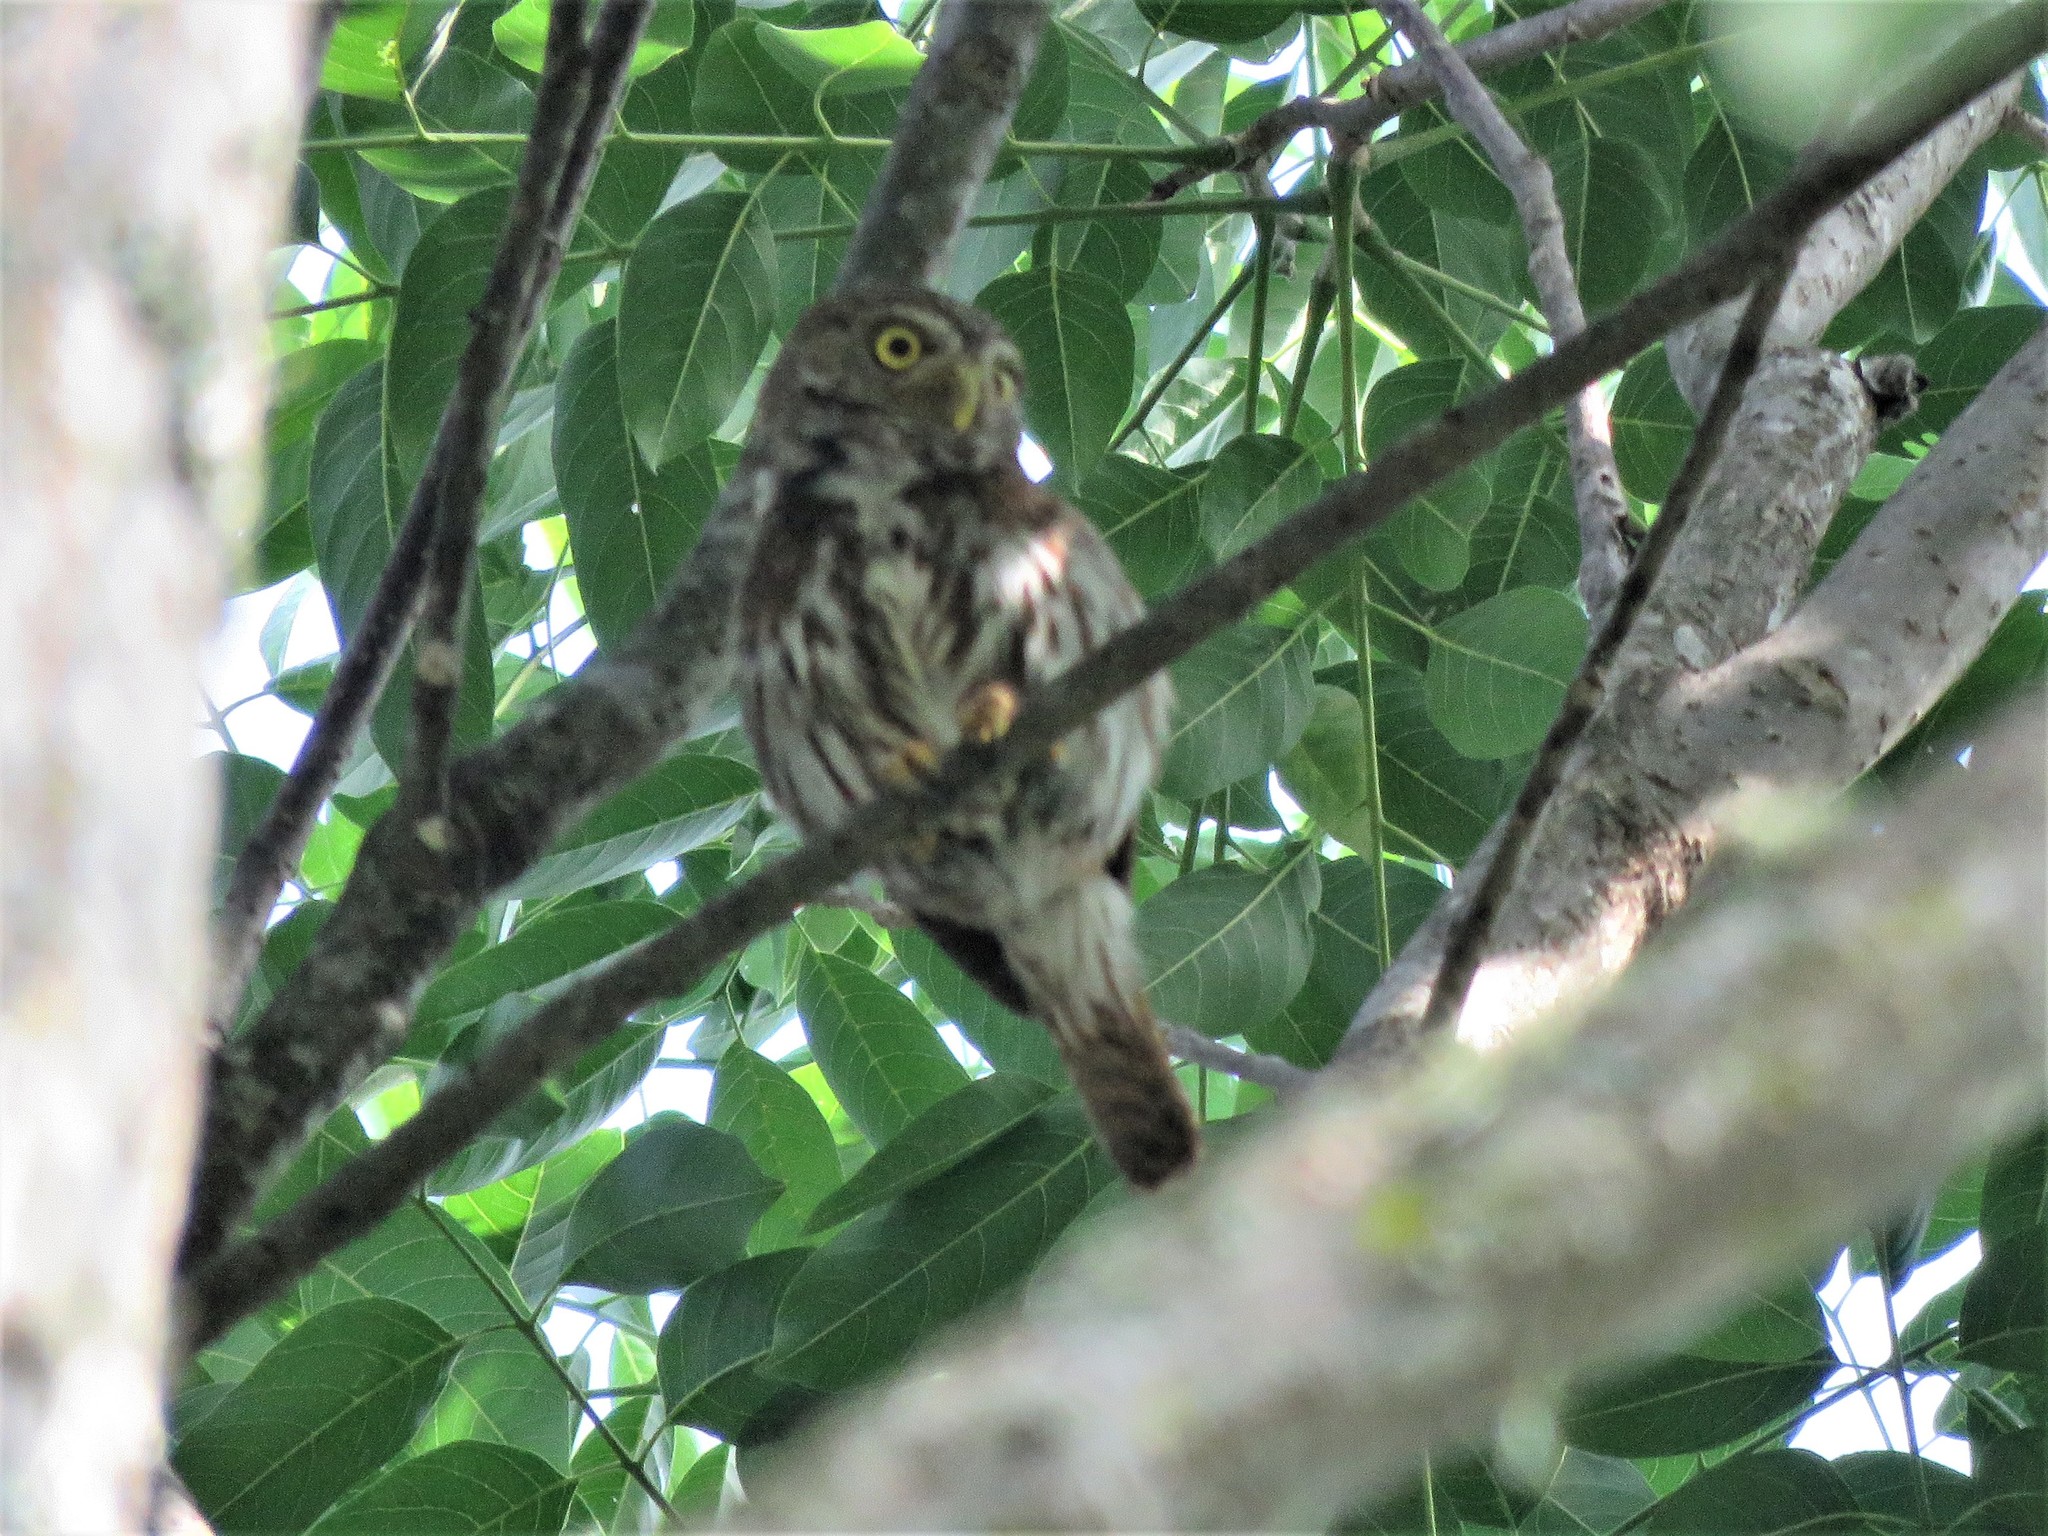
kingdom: Animalia
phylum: Chordata
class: Aves
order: Strigiformes
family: Strigidae
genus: Glaucidium
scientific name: Glaucidium brasilianum
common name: Ferruginous pygmy-owl
